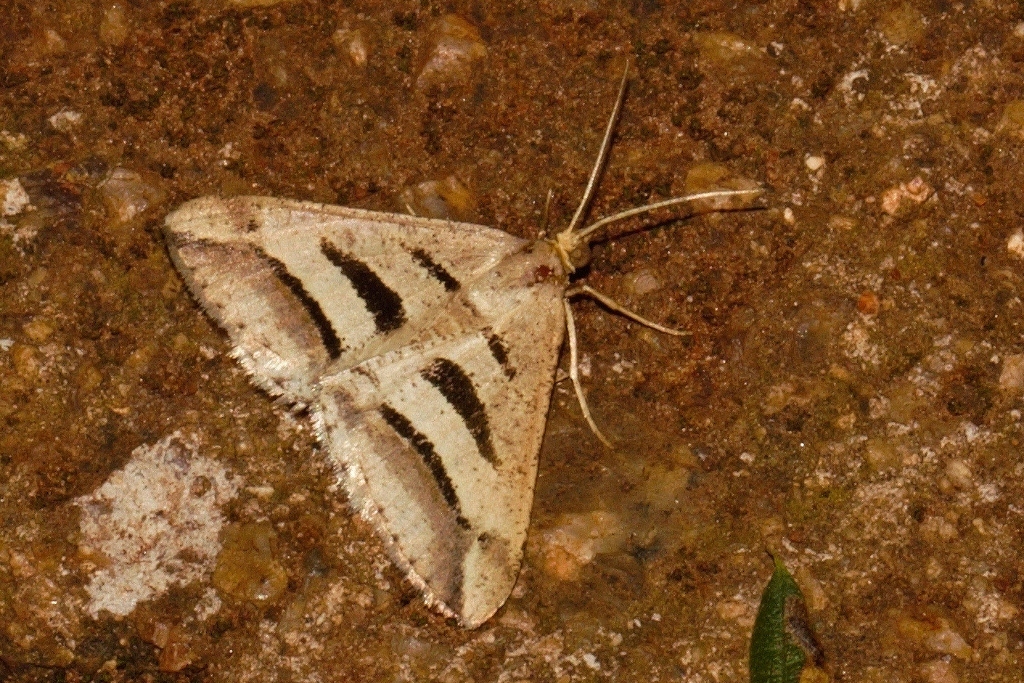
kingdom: Animalia
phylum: Arthropoda
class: Insecta
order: Lepidoptera
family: Geometridae
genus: Chiasmia
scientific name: Chiasmia subcurvaria
